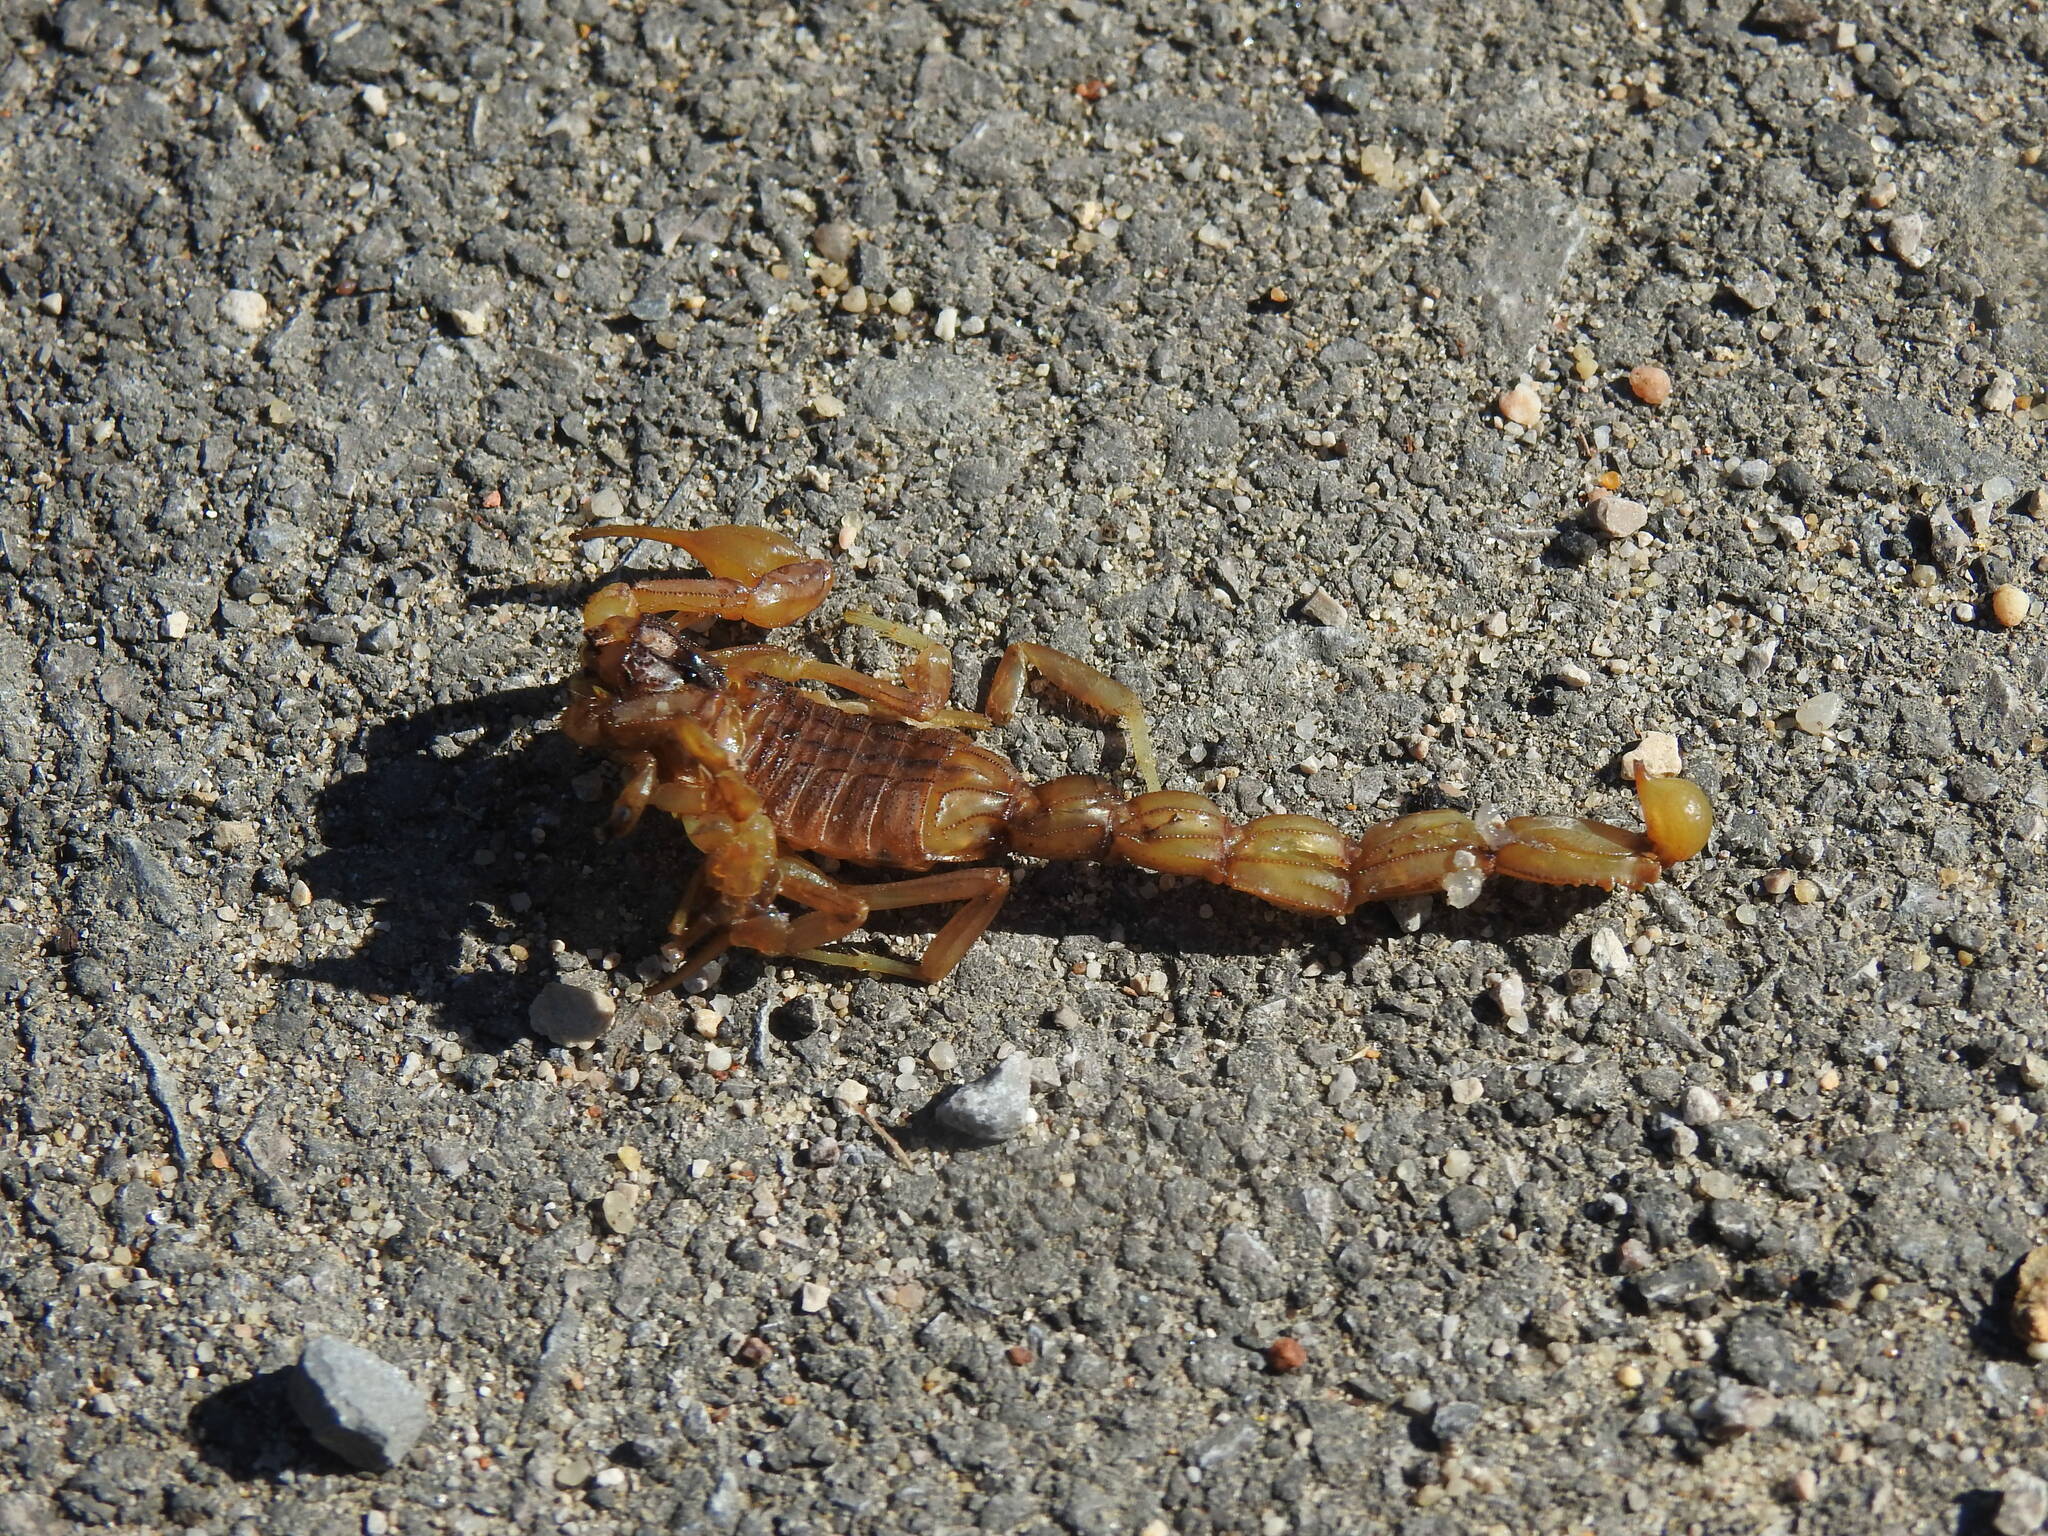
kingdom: Animalia
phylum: Arthropoda
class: Arachnida
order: Scorpiones
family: Buthidae
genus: Buthus
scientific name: Buthus gabani
